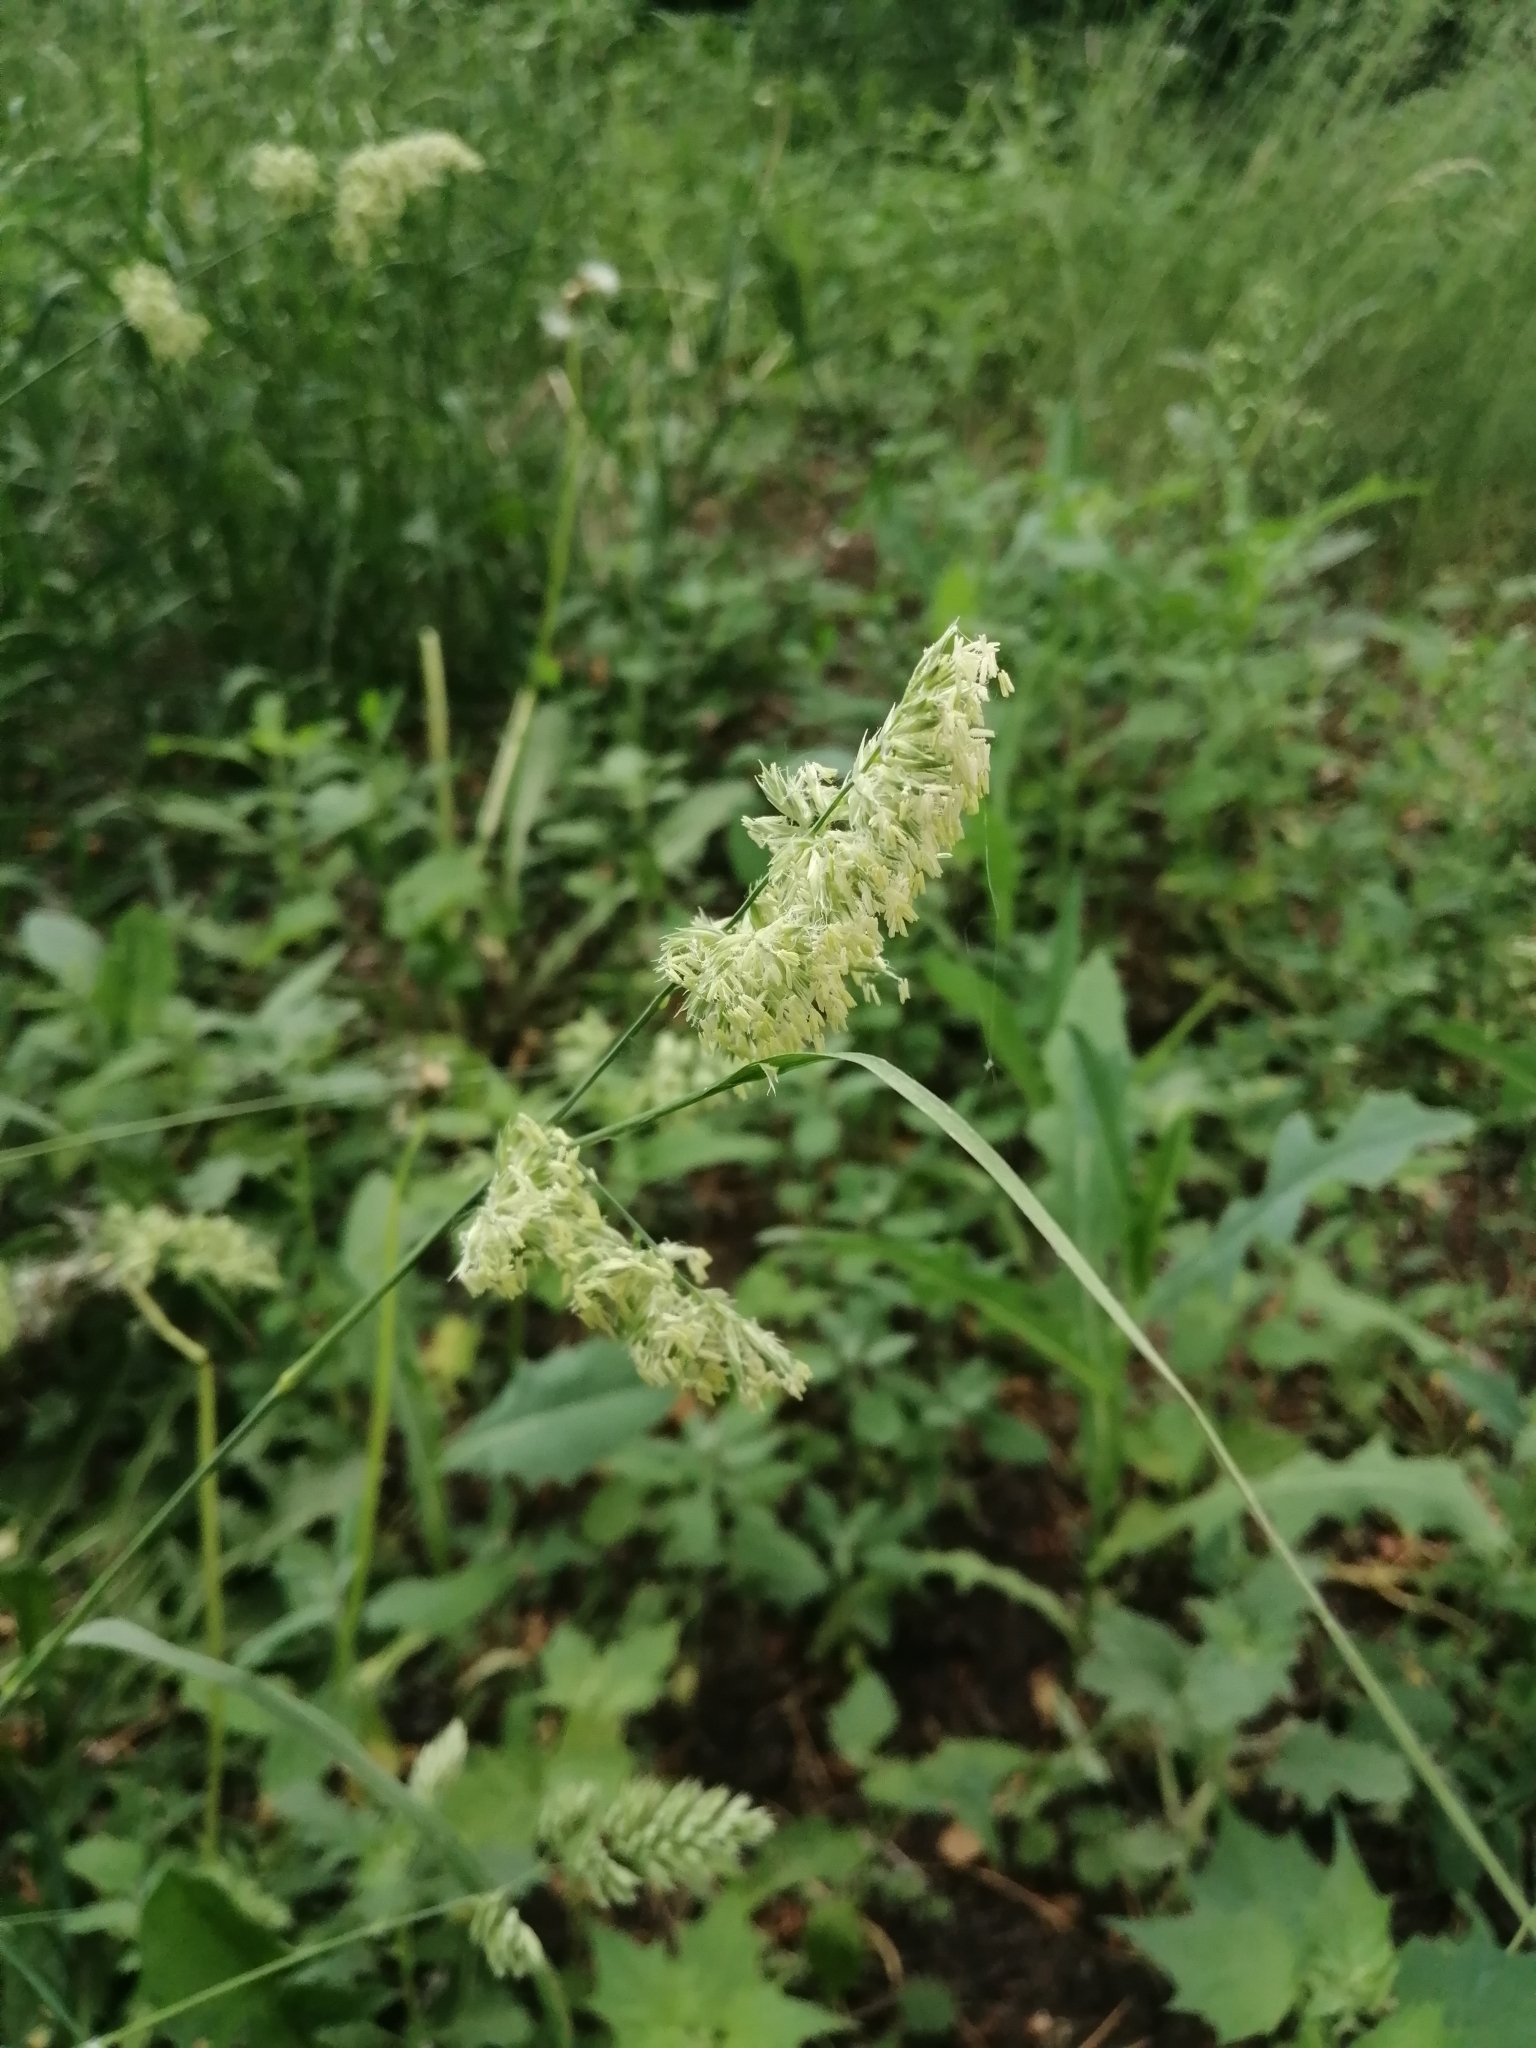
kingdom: Plantae
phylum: Tracheophyta
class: Liliopsida
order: Poales
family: Poaceae
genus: Dactylis
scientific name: Dactylis glomerata
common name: Orchardgrass
